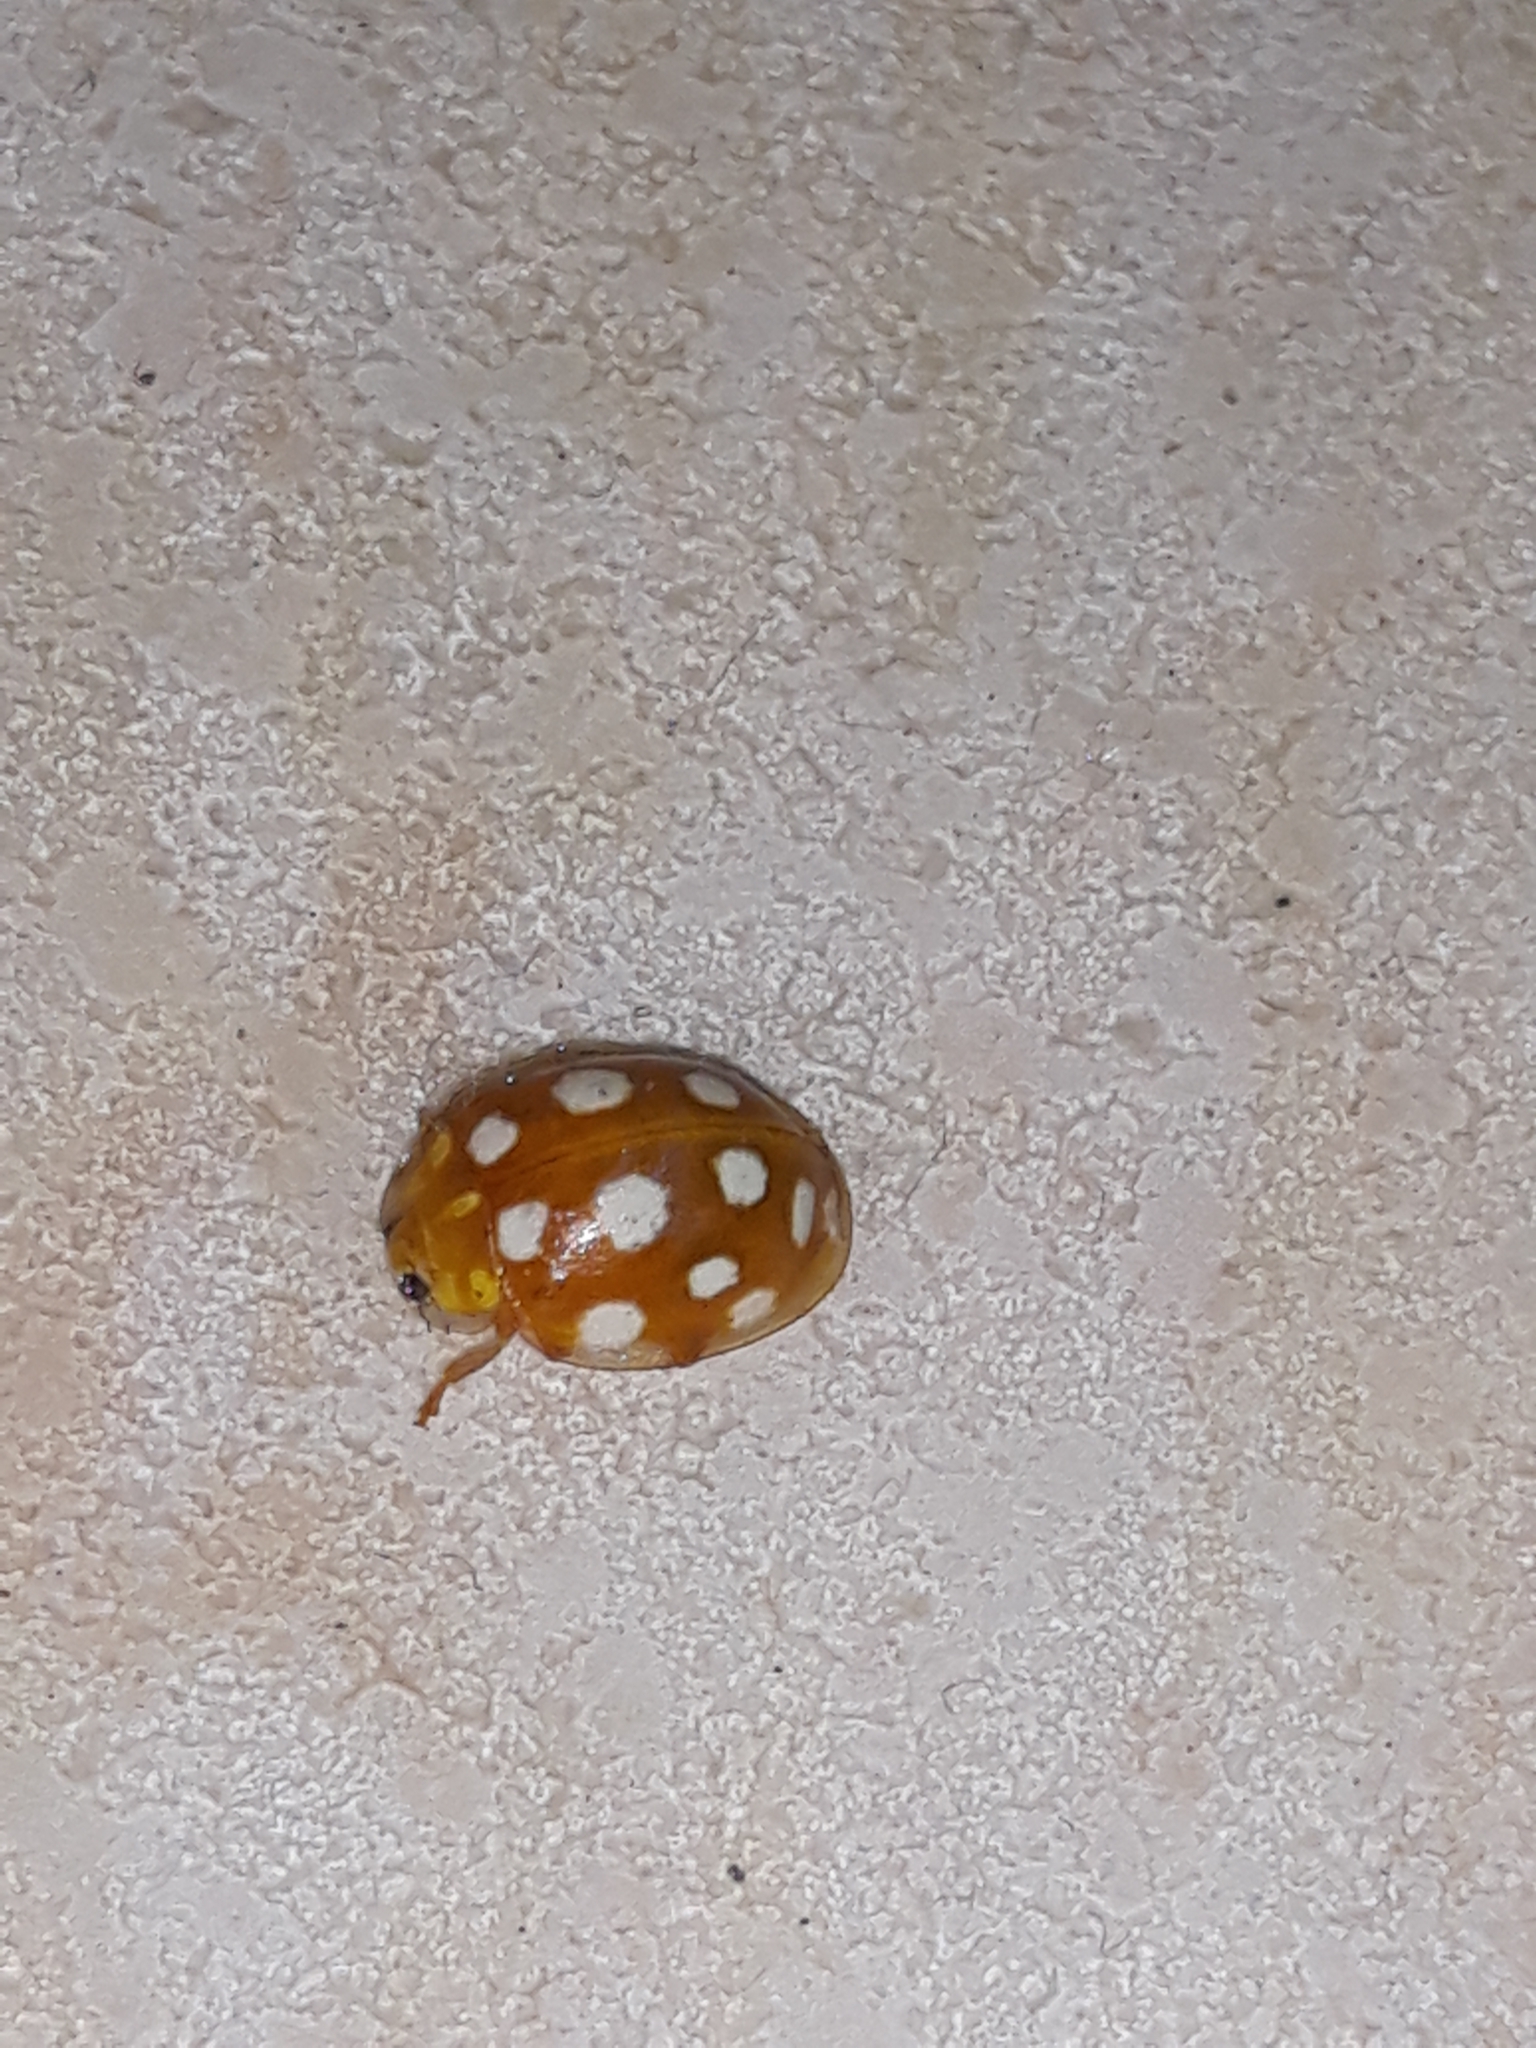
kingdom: Animalia
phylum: Arthropoda
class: Insecta
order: Coleoptera
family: Coccinellidae
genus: Halyzia
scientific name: Halyzia sedecimguttata
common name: Orange ladybird
